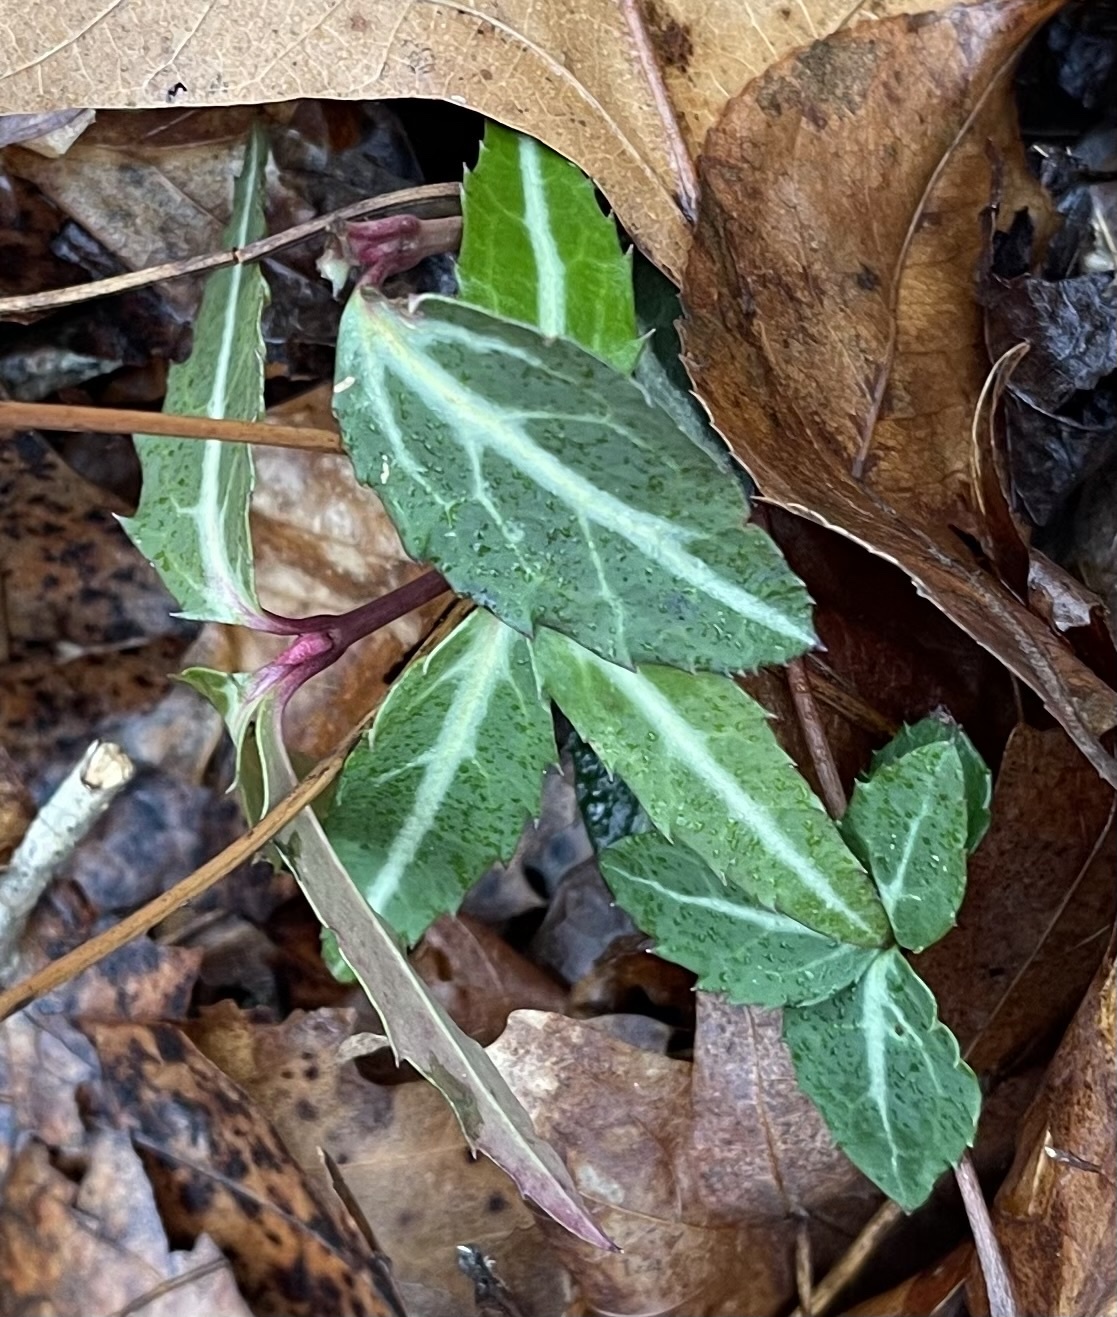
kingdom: Plantae
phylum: Tracheophyta
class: Magnoliopsida
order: Ericales
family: Ericaceae
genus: Chimaphila
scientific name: Chimaphila maculata
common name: Spotted pipsissewa
